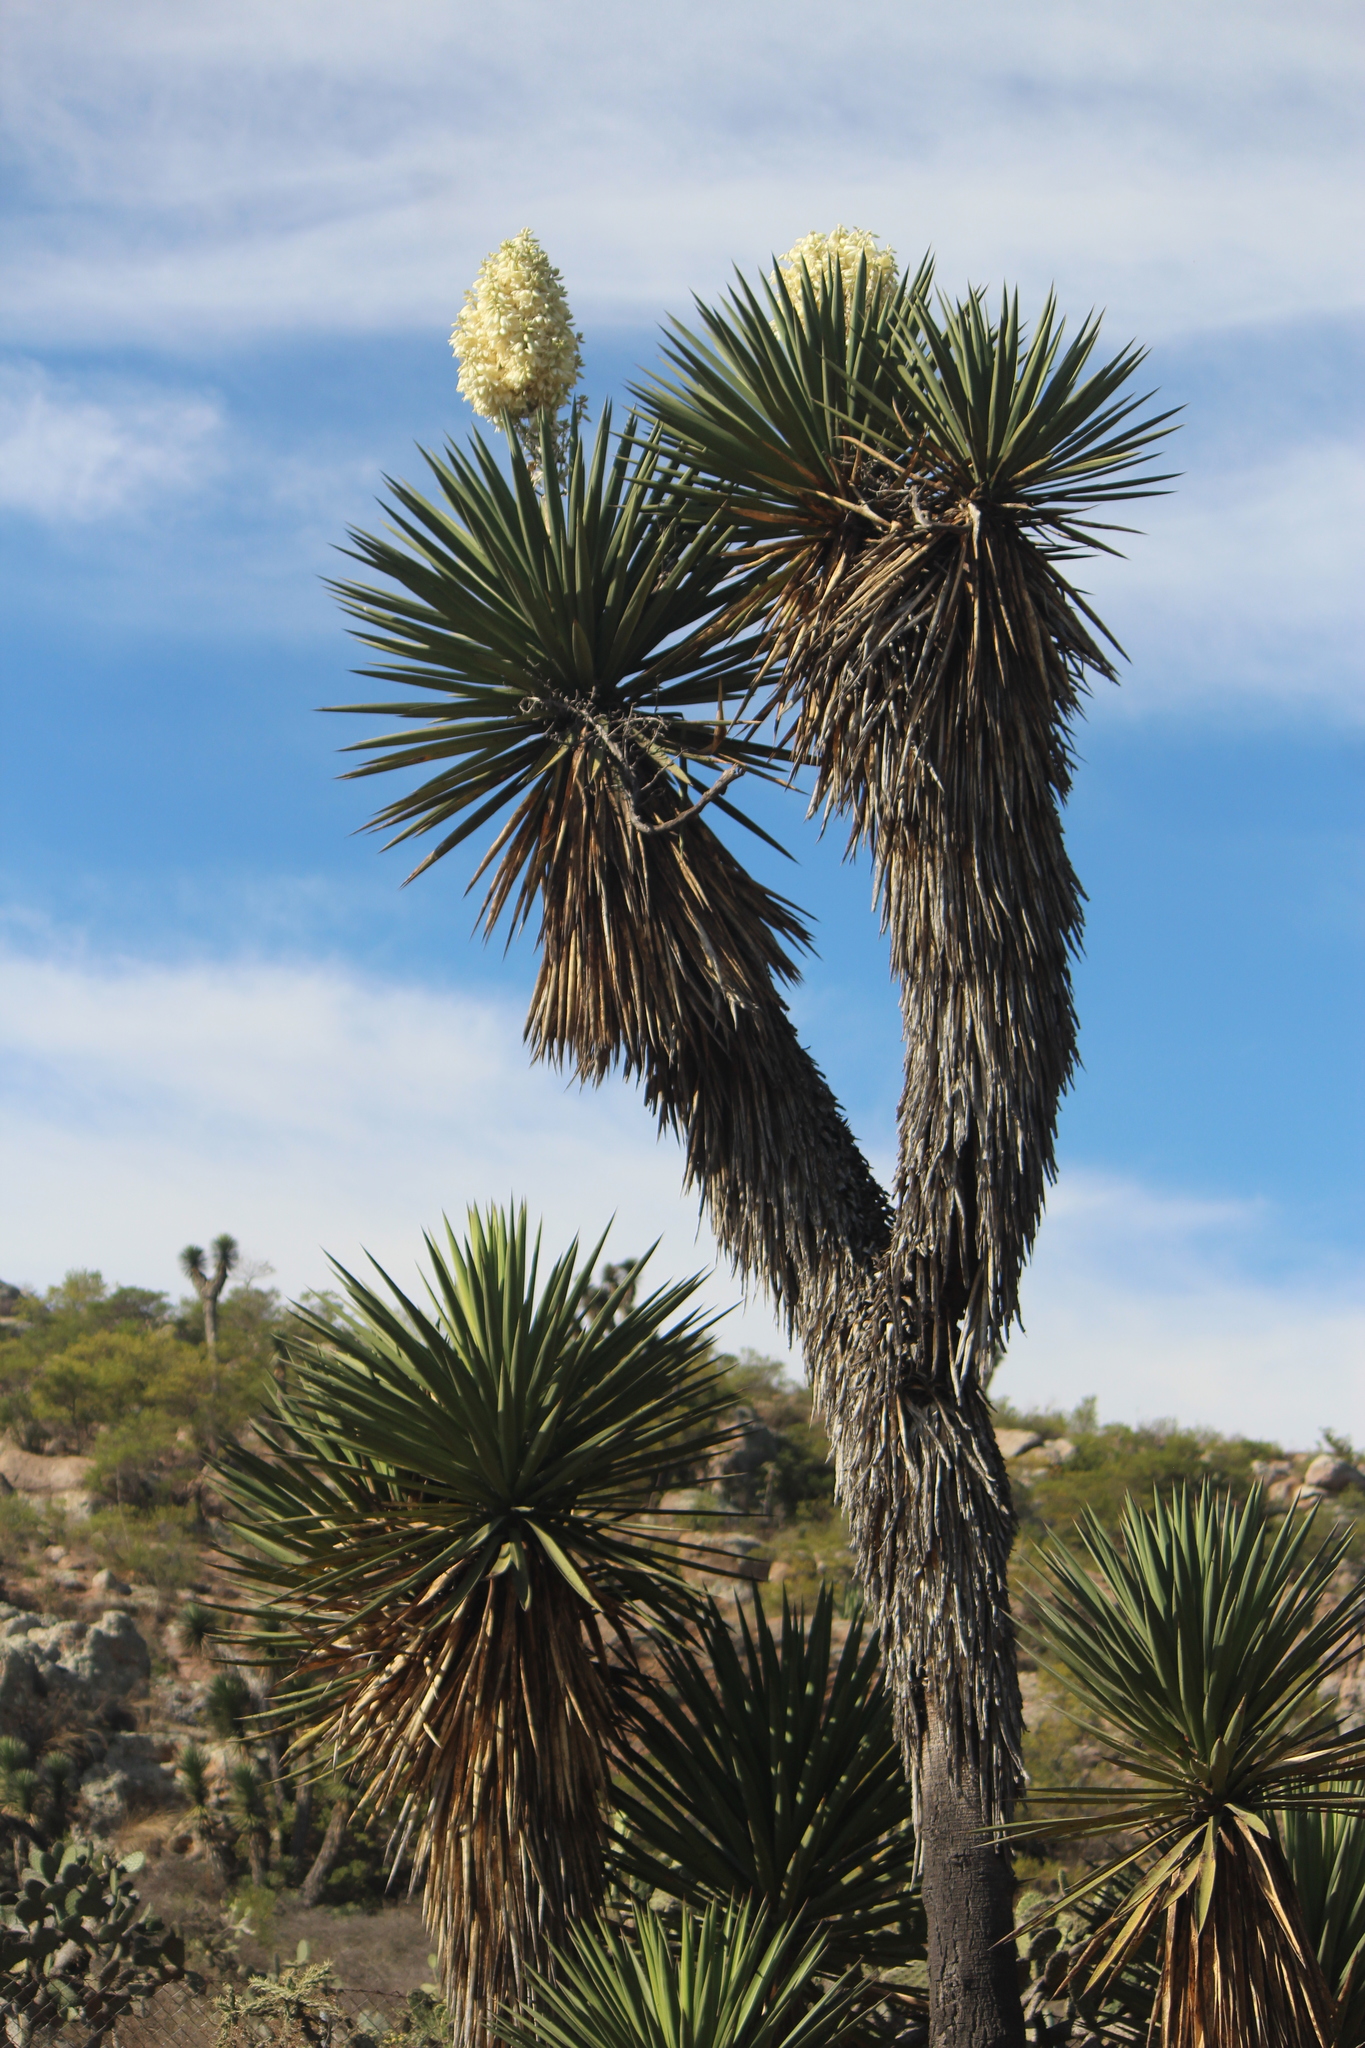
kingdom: Plantae
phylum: Tracheophyta
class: Liliopsida
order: Asparagales
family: Asparagaceae
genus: Yucca
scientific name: Yucca carnerosana
